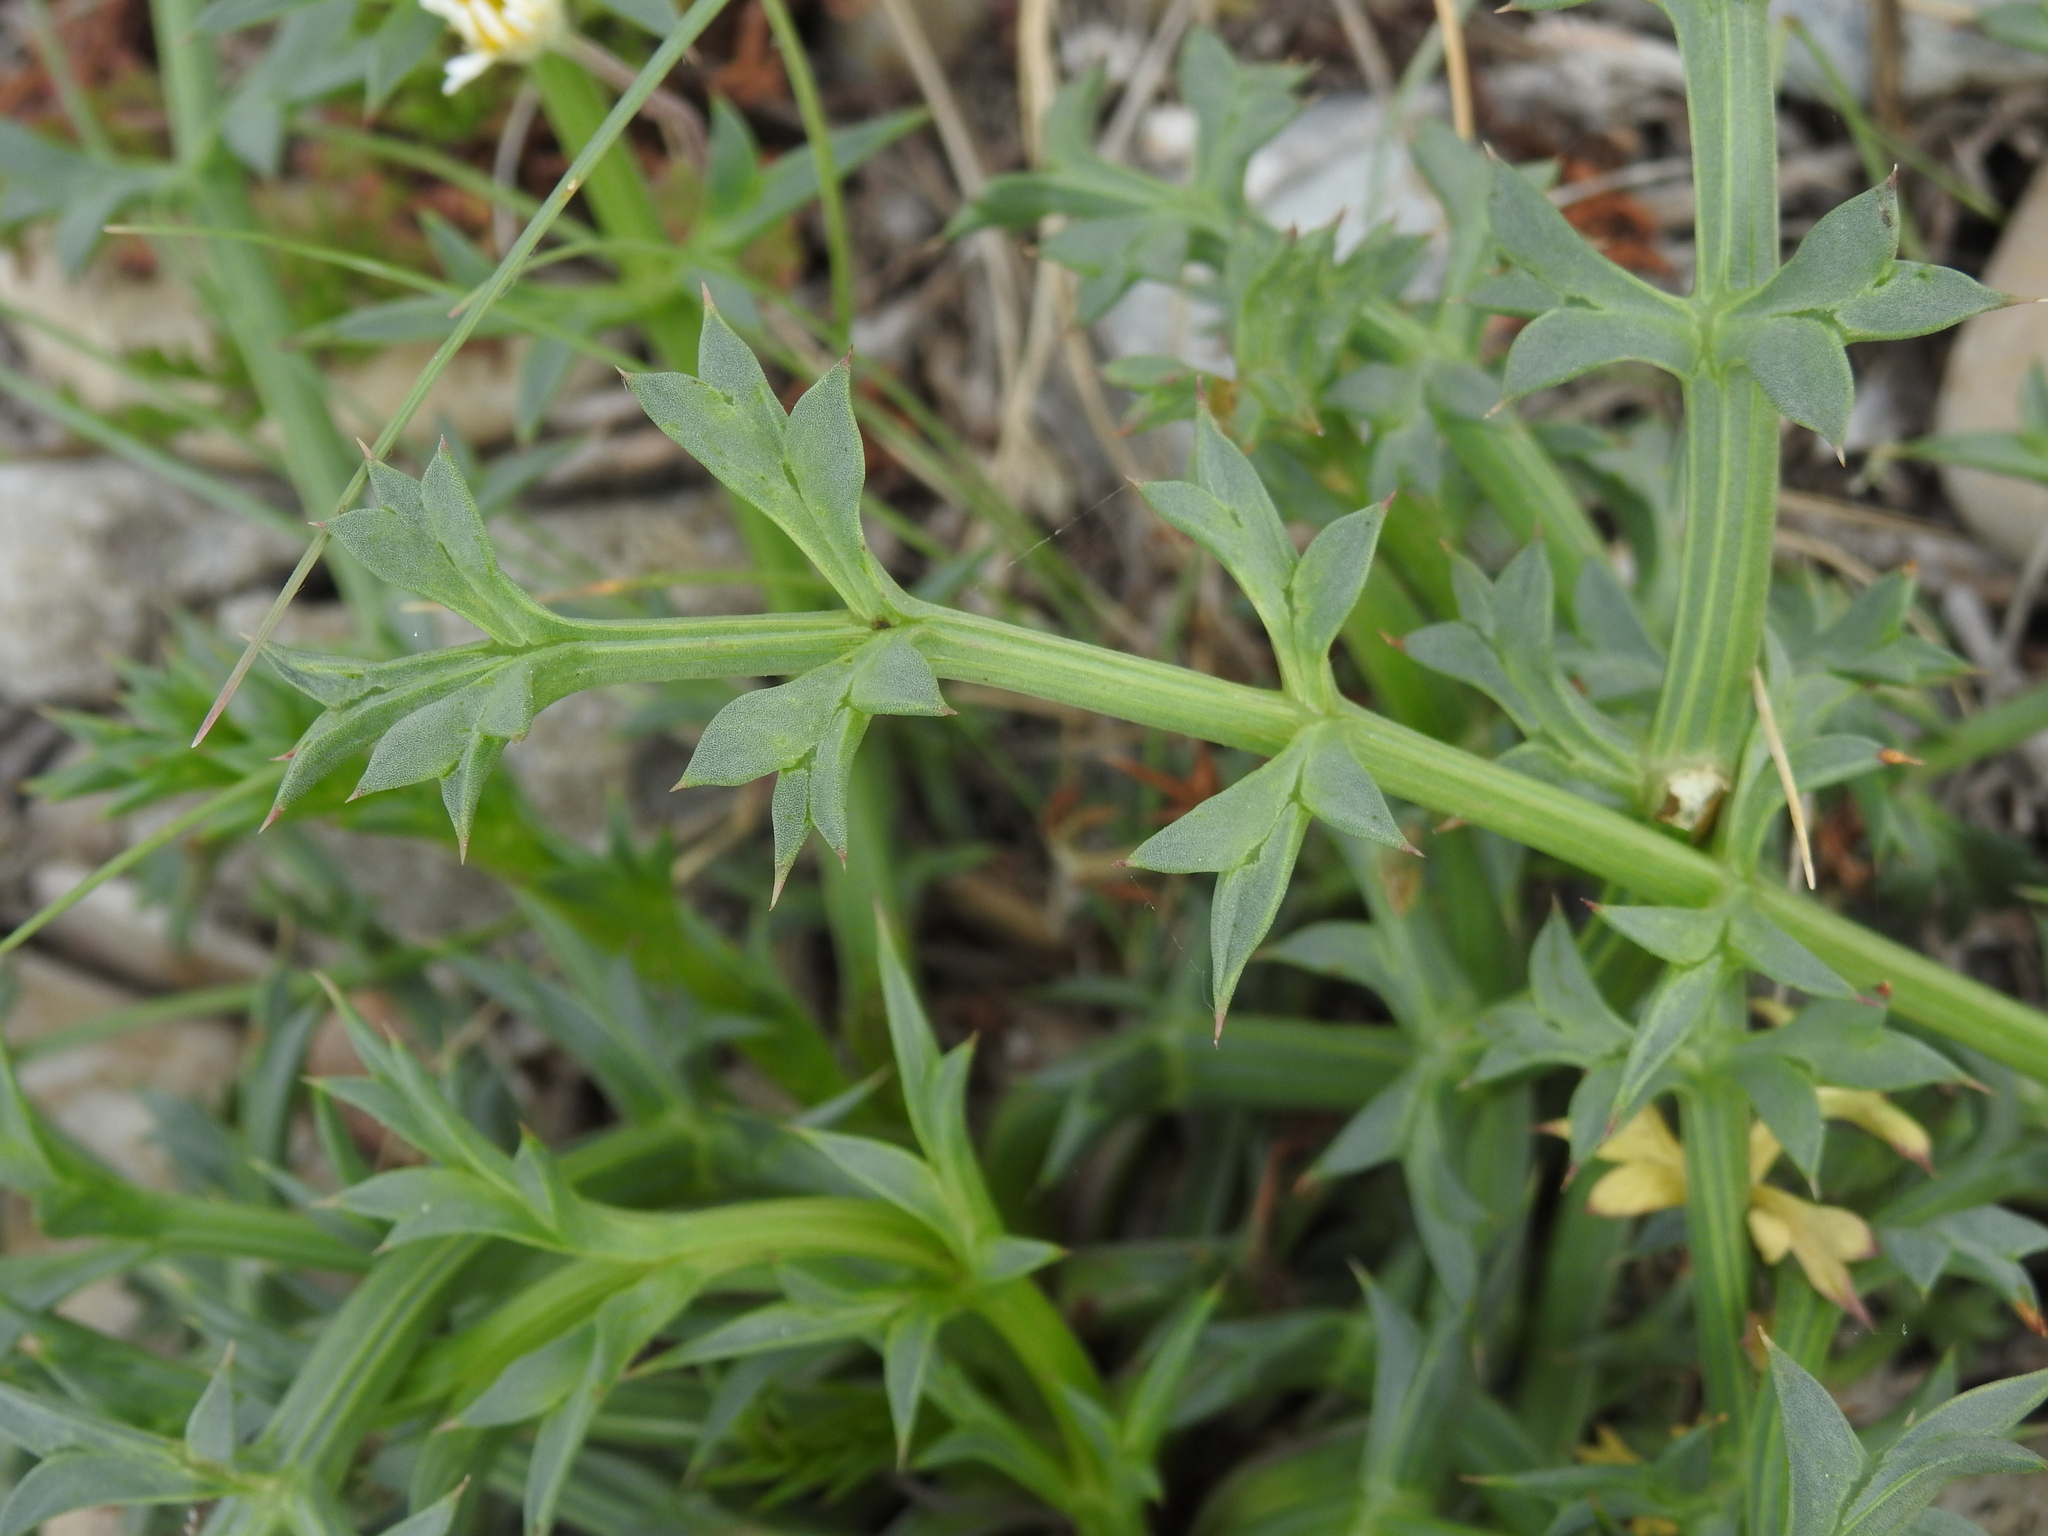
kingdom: Plantae
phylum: Tracheophyta
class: Magnoliopsida
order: Apiales
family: Apiaceae
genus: Echinophora
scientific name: Echinophora spinosa
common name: Prickly samphire
